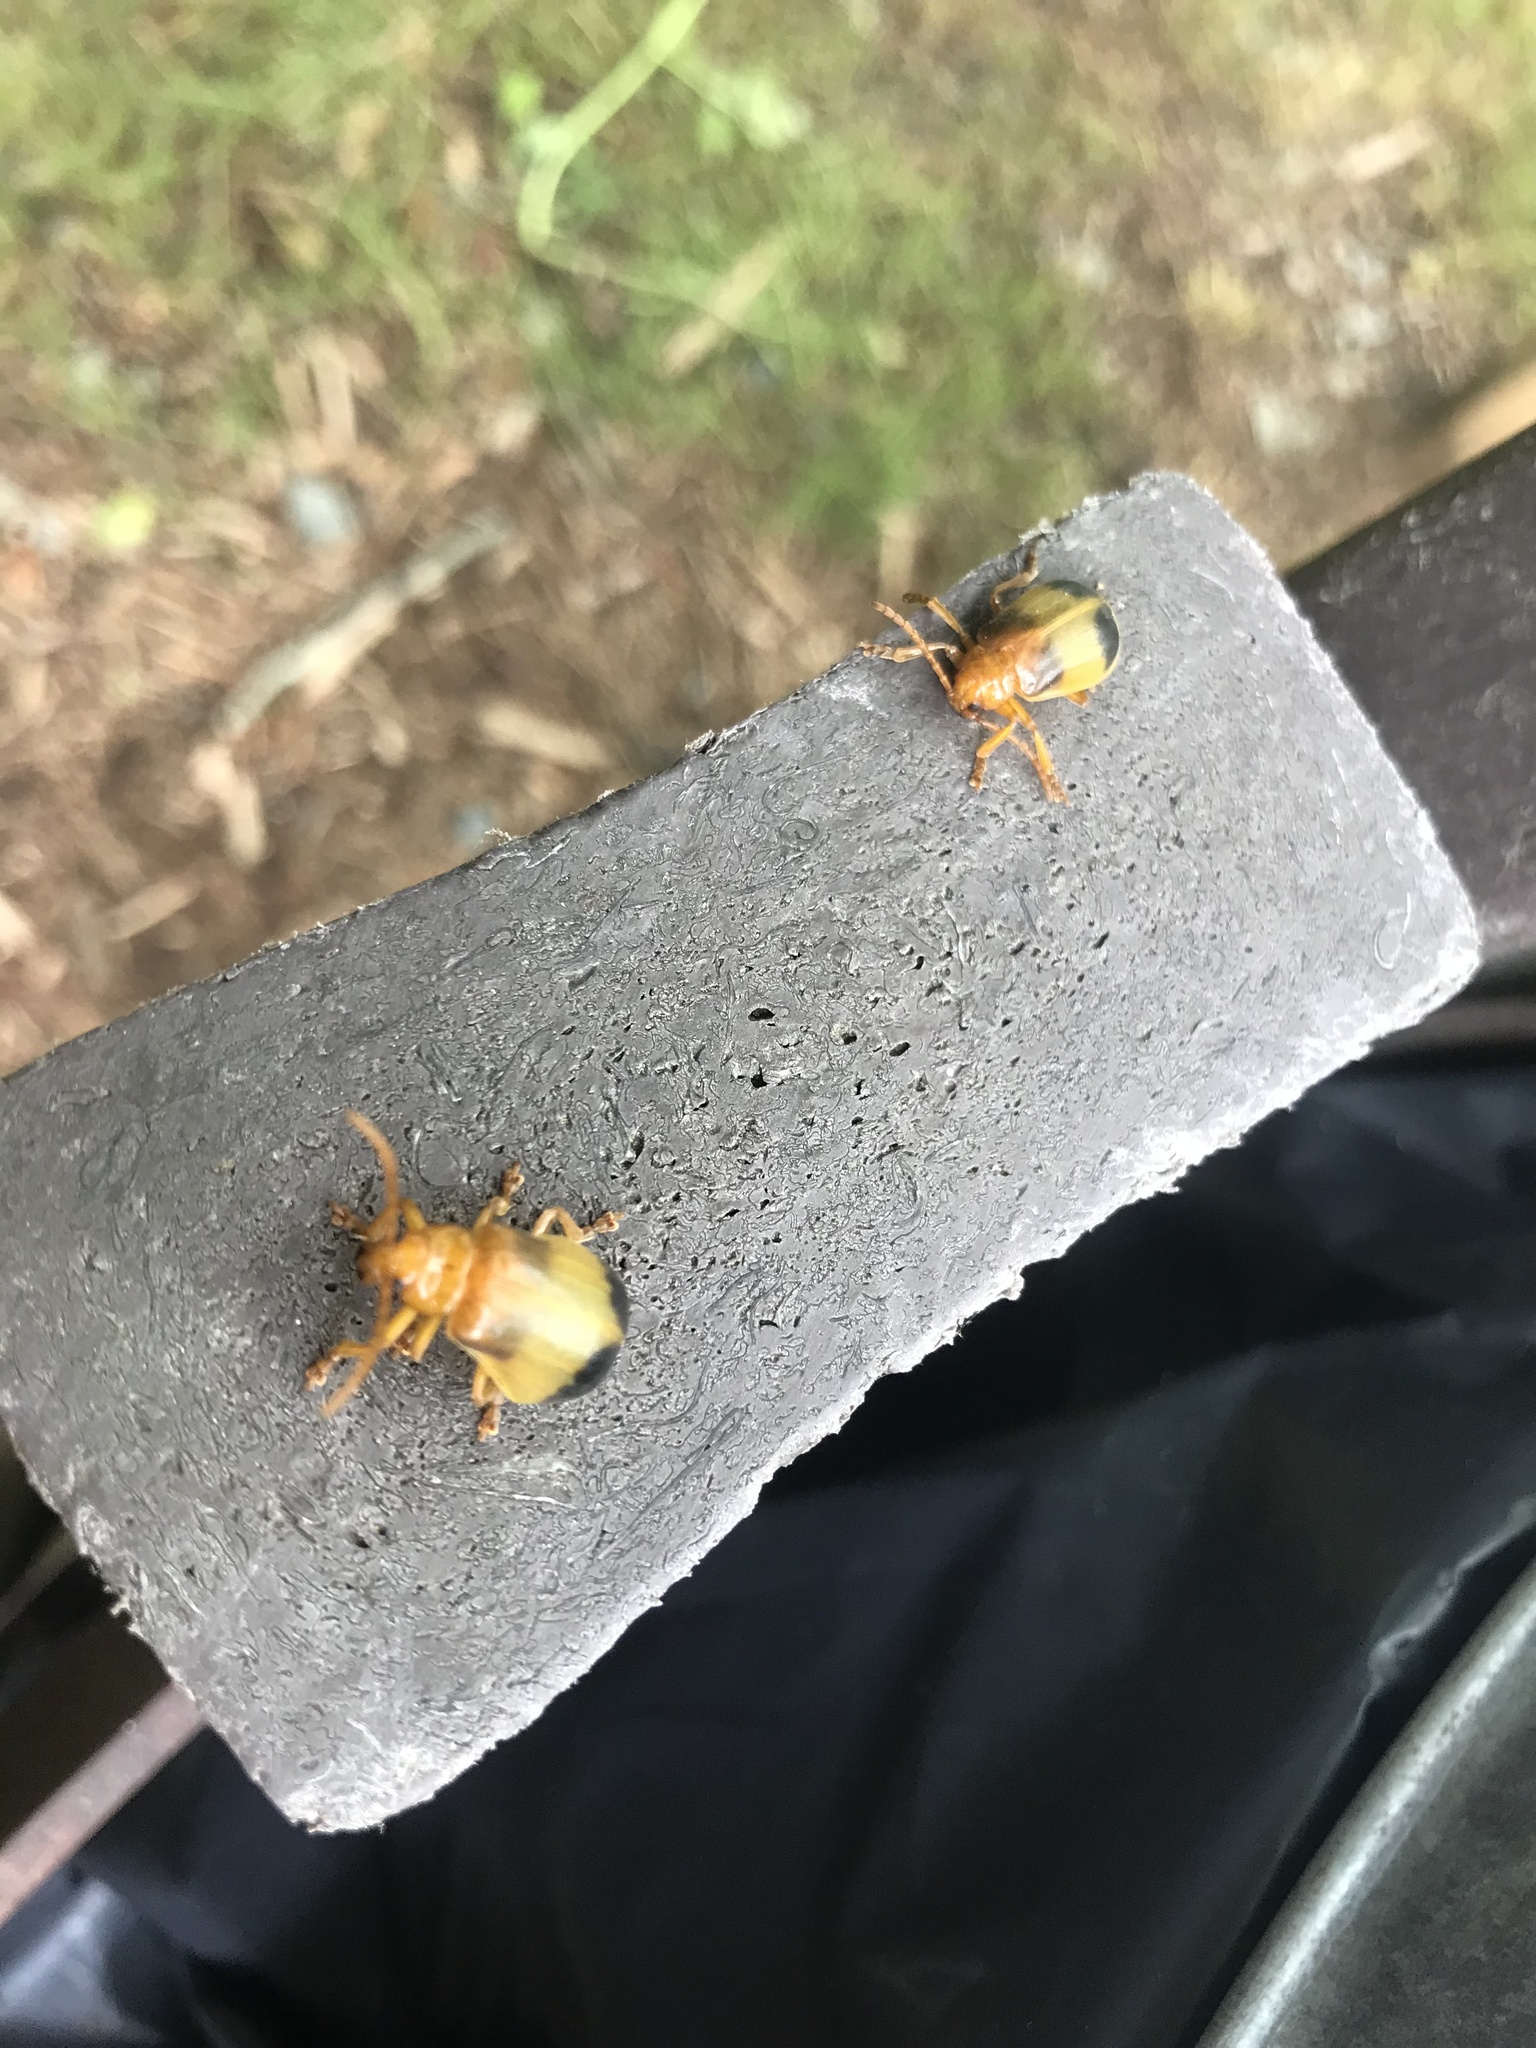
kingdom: Animalia
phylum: Arthropoda
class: Insecta
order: Coleoptera
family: Chrysomelidae
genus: Monocesta
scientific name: Monocesta coryli
